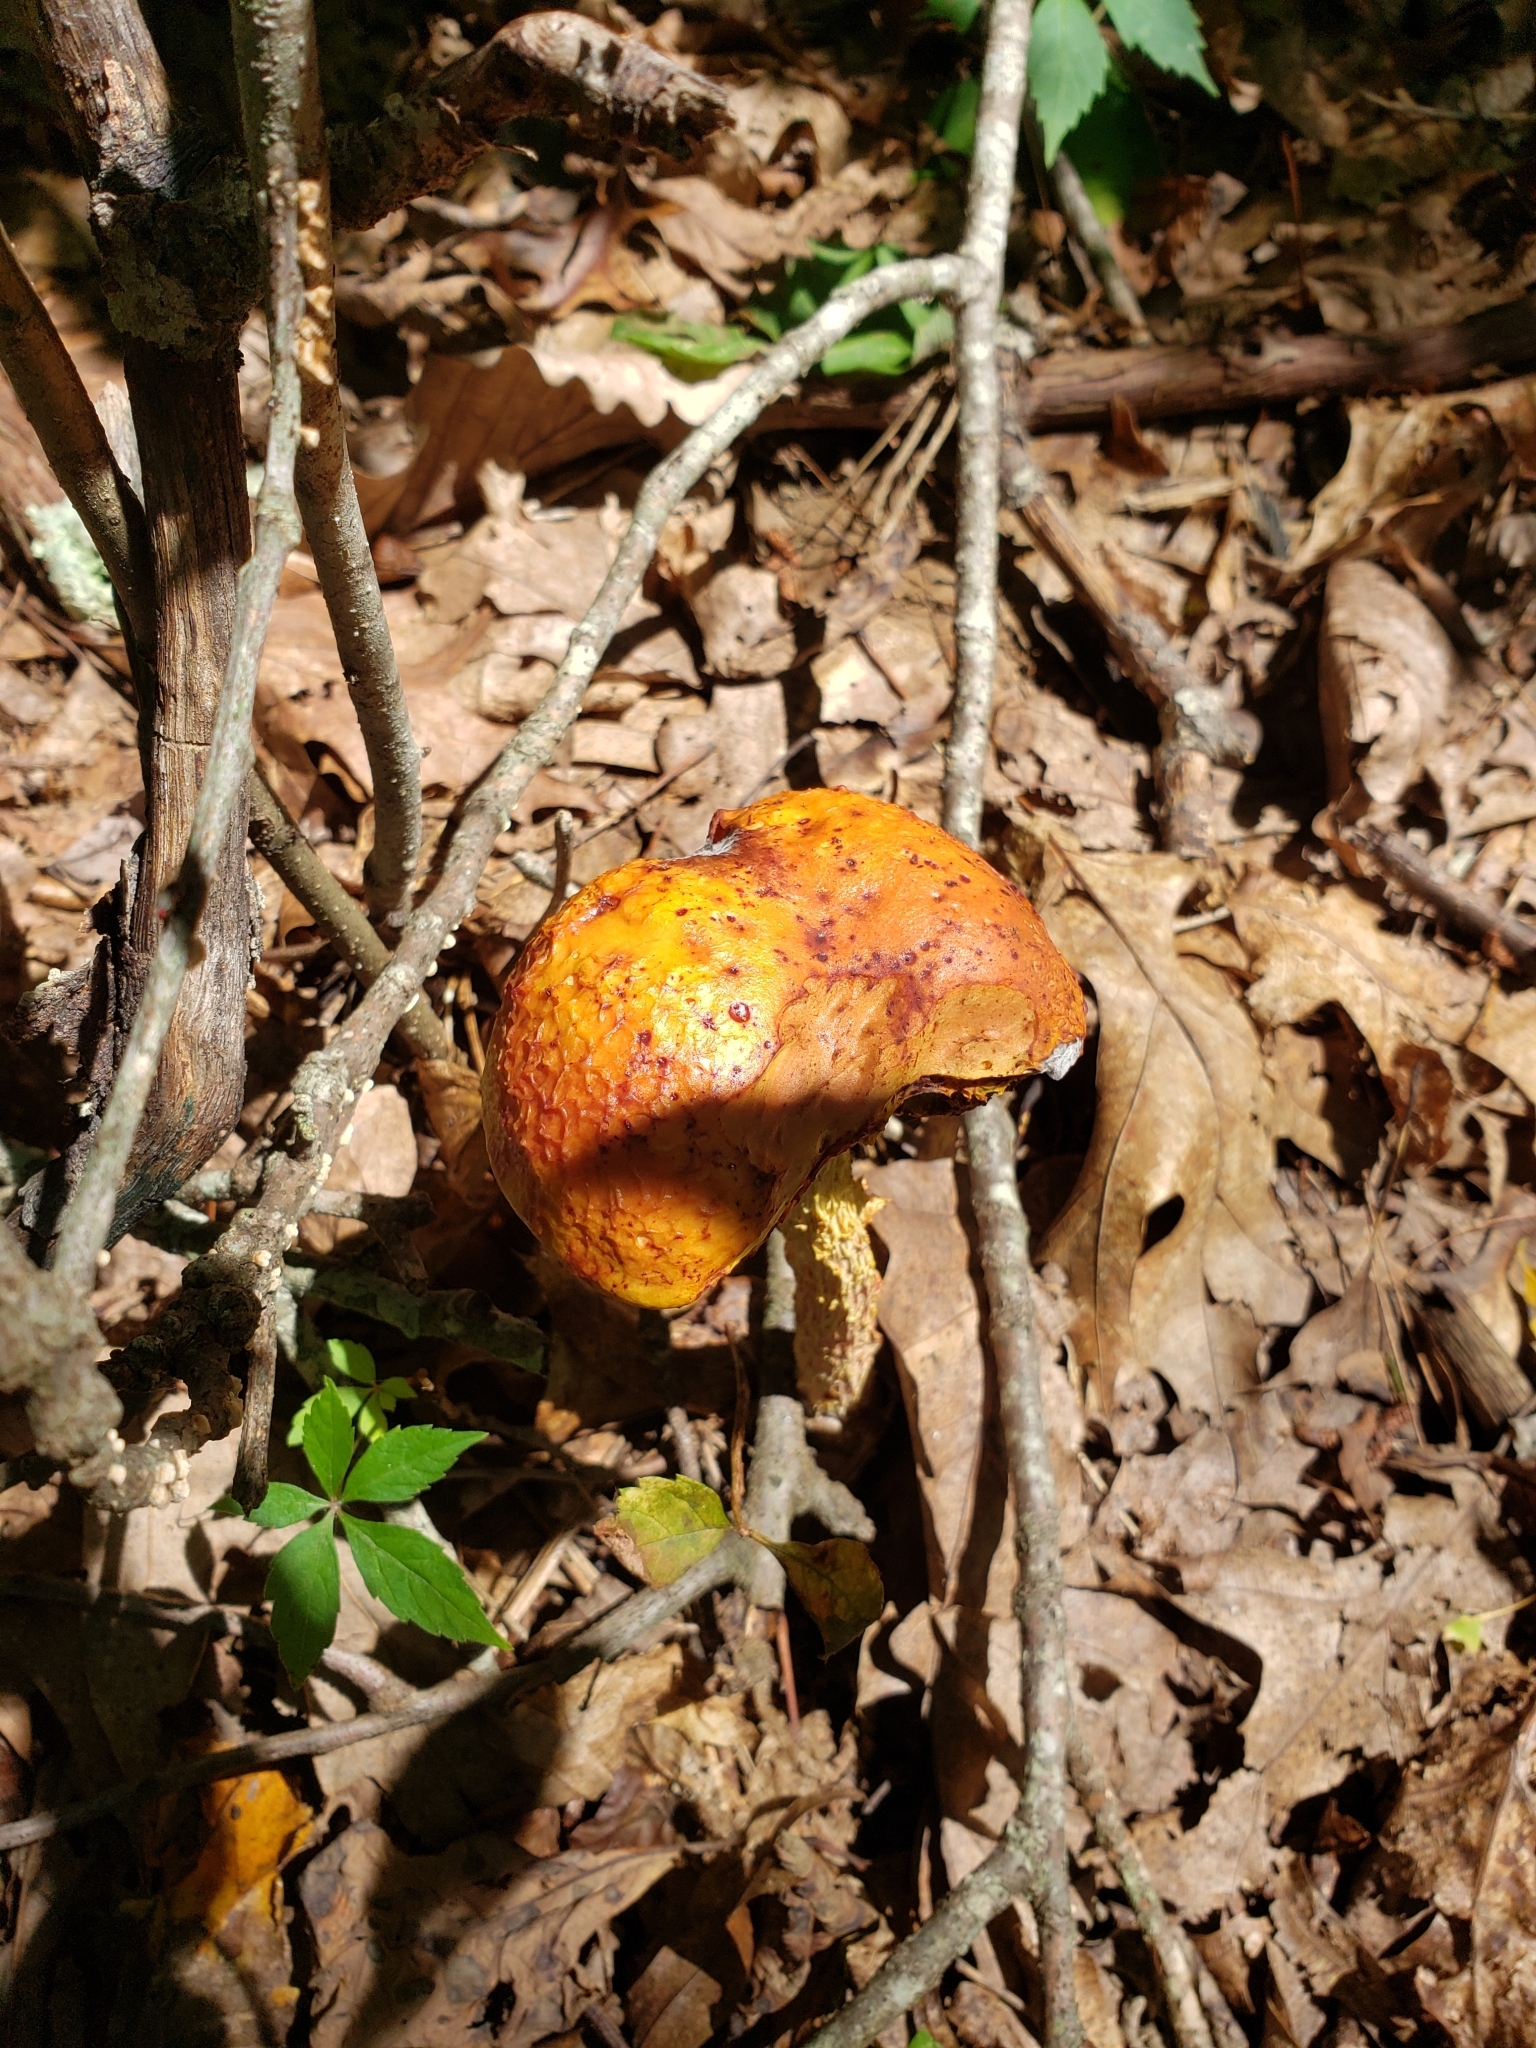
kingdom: Fungi
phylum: Basidiomycota
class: Agaricomycetes
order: Boletales
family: Boletaceae
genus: Aureoboletus
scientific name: Aureoboletus betula
